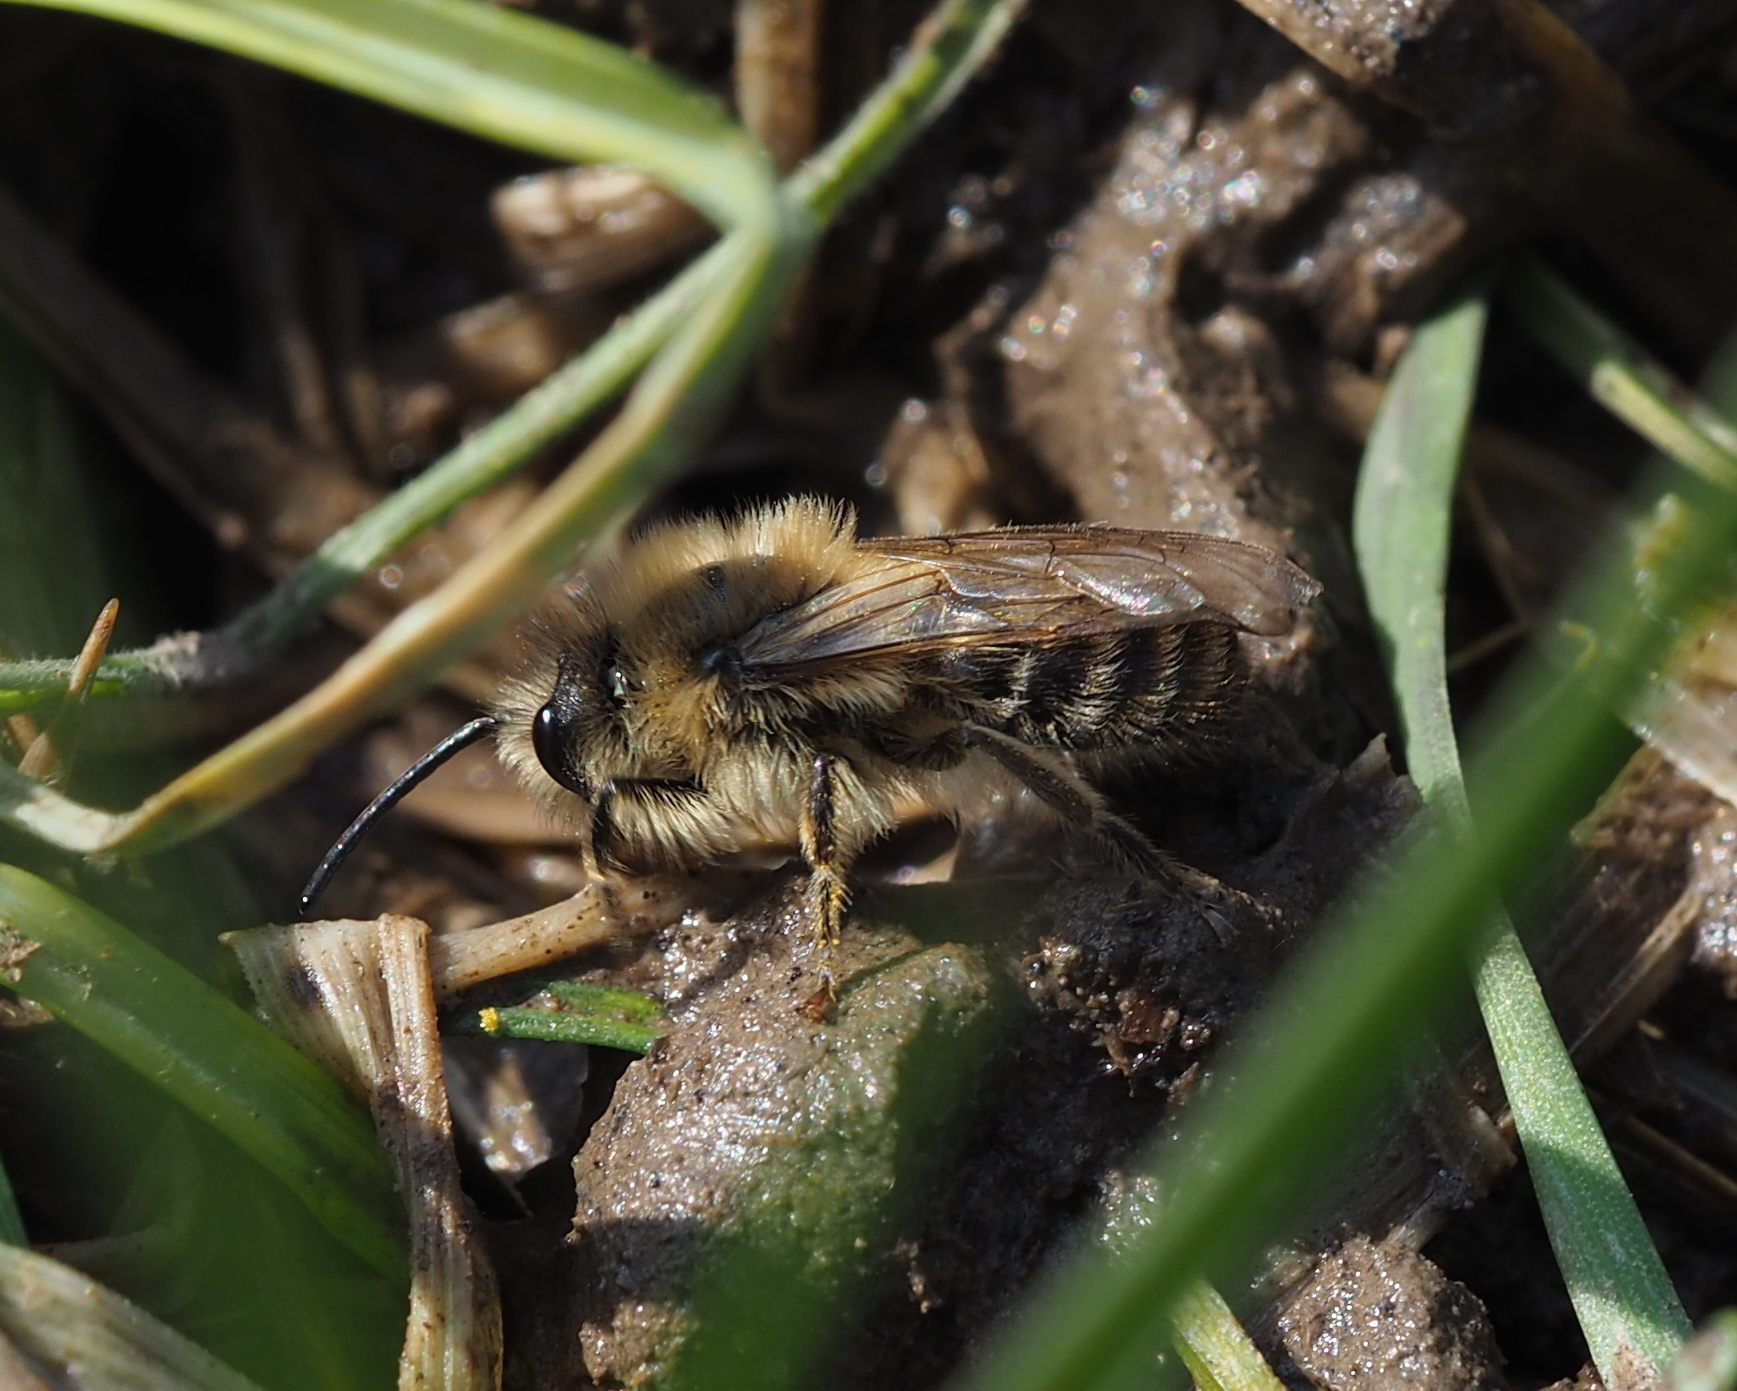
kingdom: Animalia
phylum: Arthropoda
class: Insecta
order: Hymenoptera
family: Colletidae
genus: Colletes
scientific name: Colletes cunicularius
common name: Early colletes
